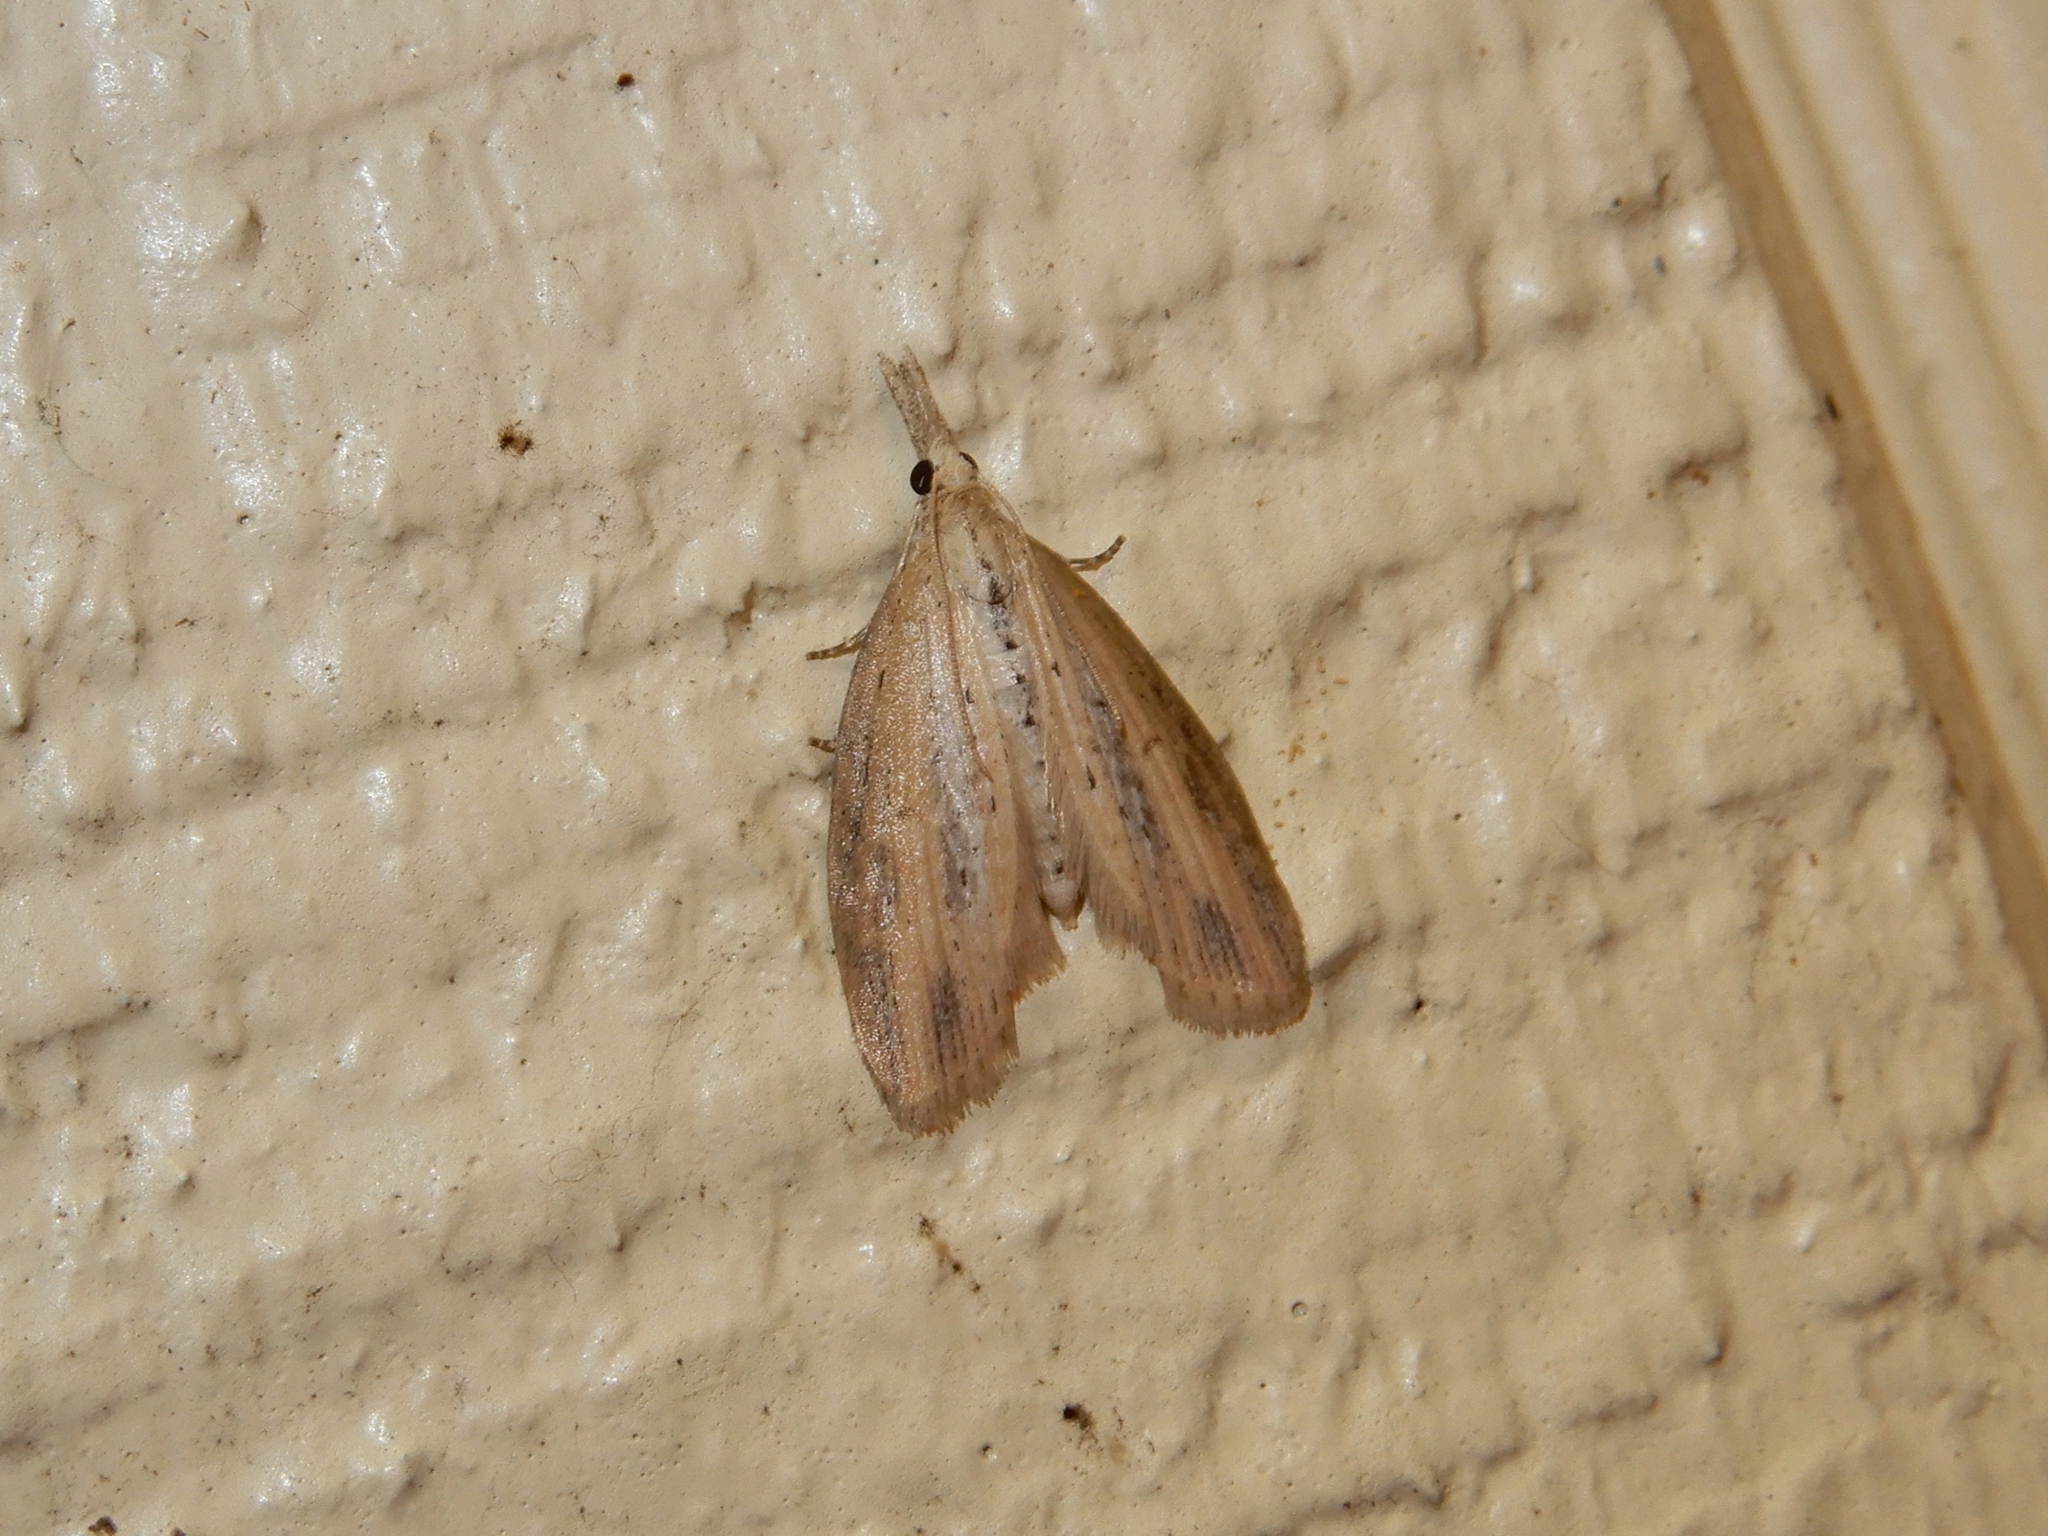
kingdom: Animalia
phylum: Arthropoda
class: Insecta
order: Lepidoptera
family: Geometridae
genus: Microdes
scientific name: Microdes epicryptis
